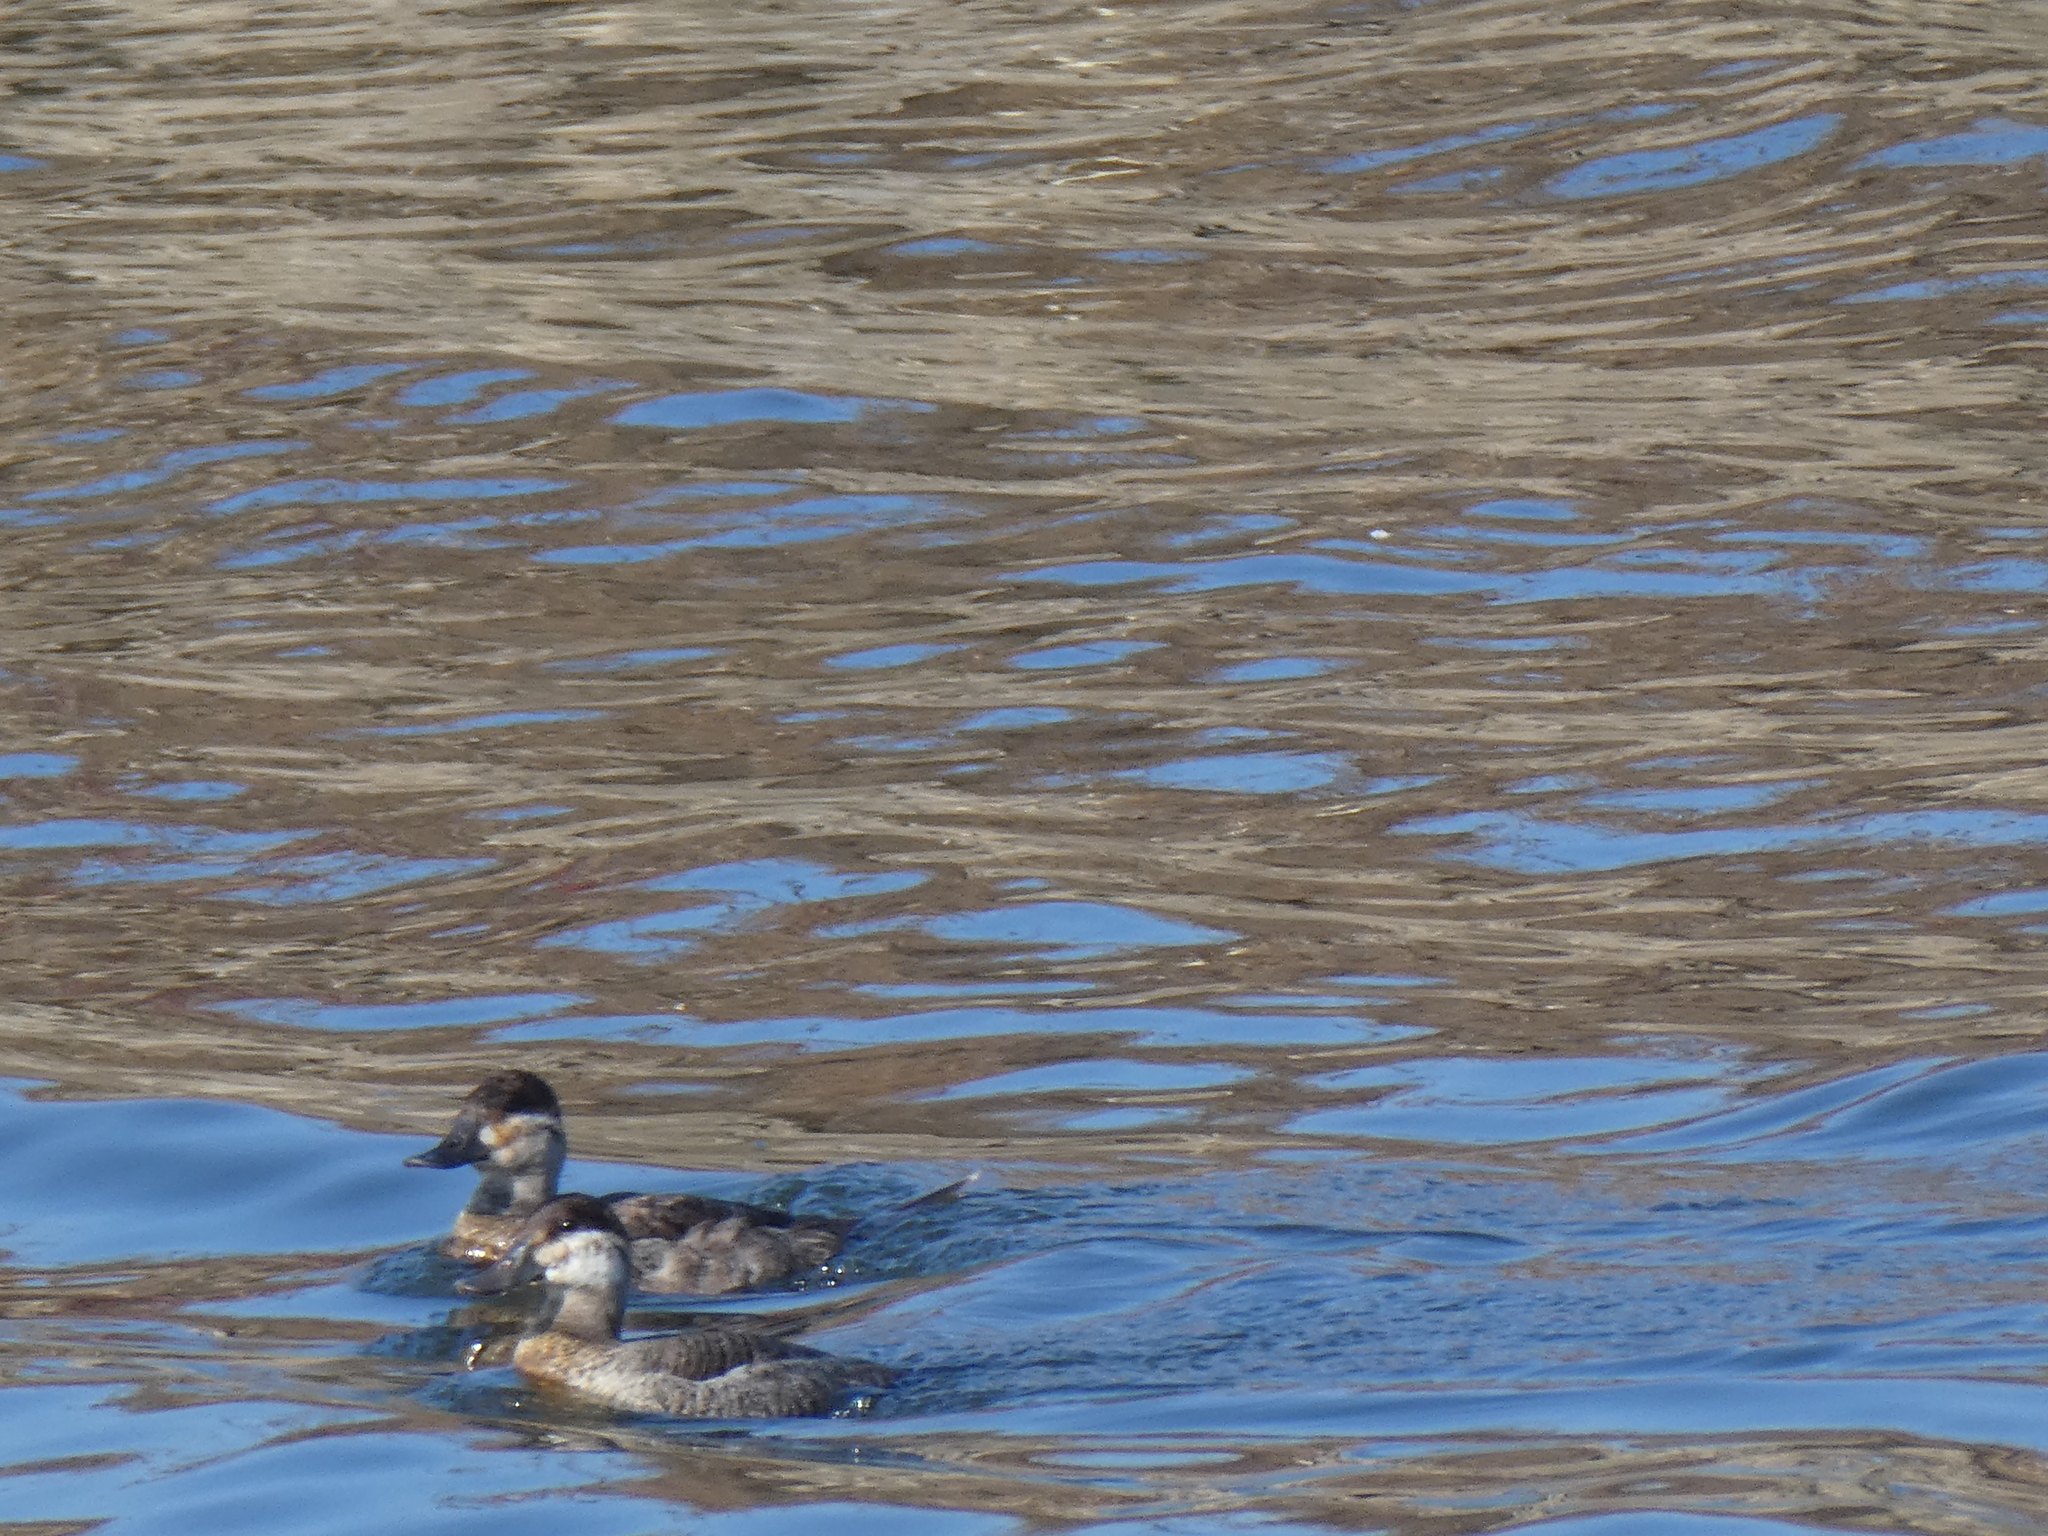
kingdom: Animalia
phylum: Chordata
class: Aves
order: Anseriformes
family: Anatidae
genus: Oxyura
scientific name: Oxyura jamaicensis
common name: Ruddy duck
